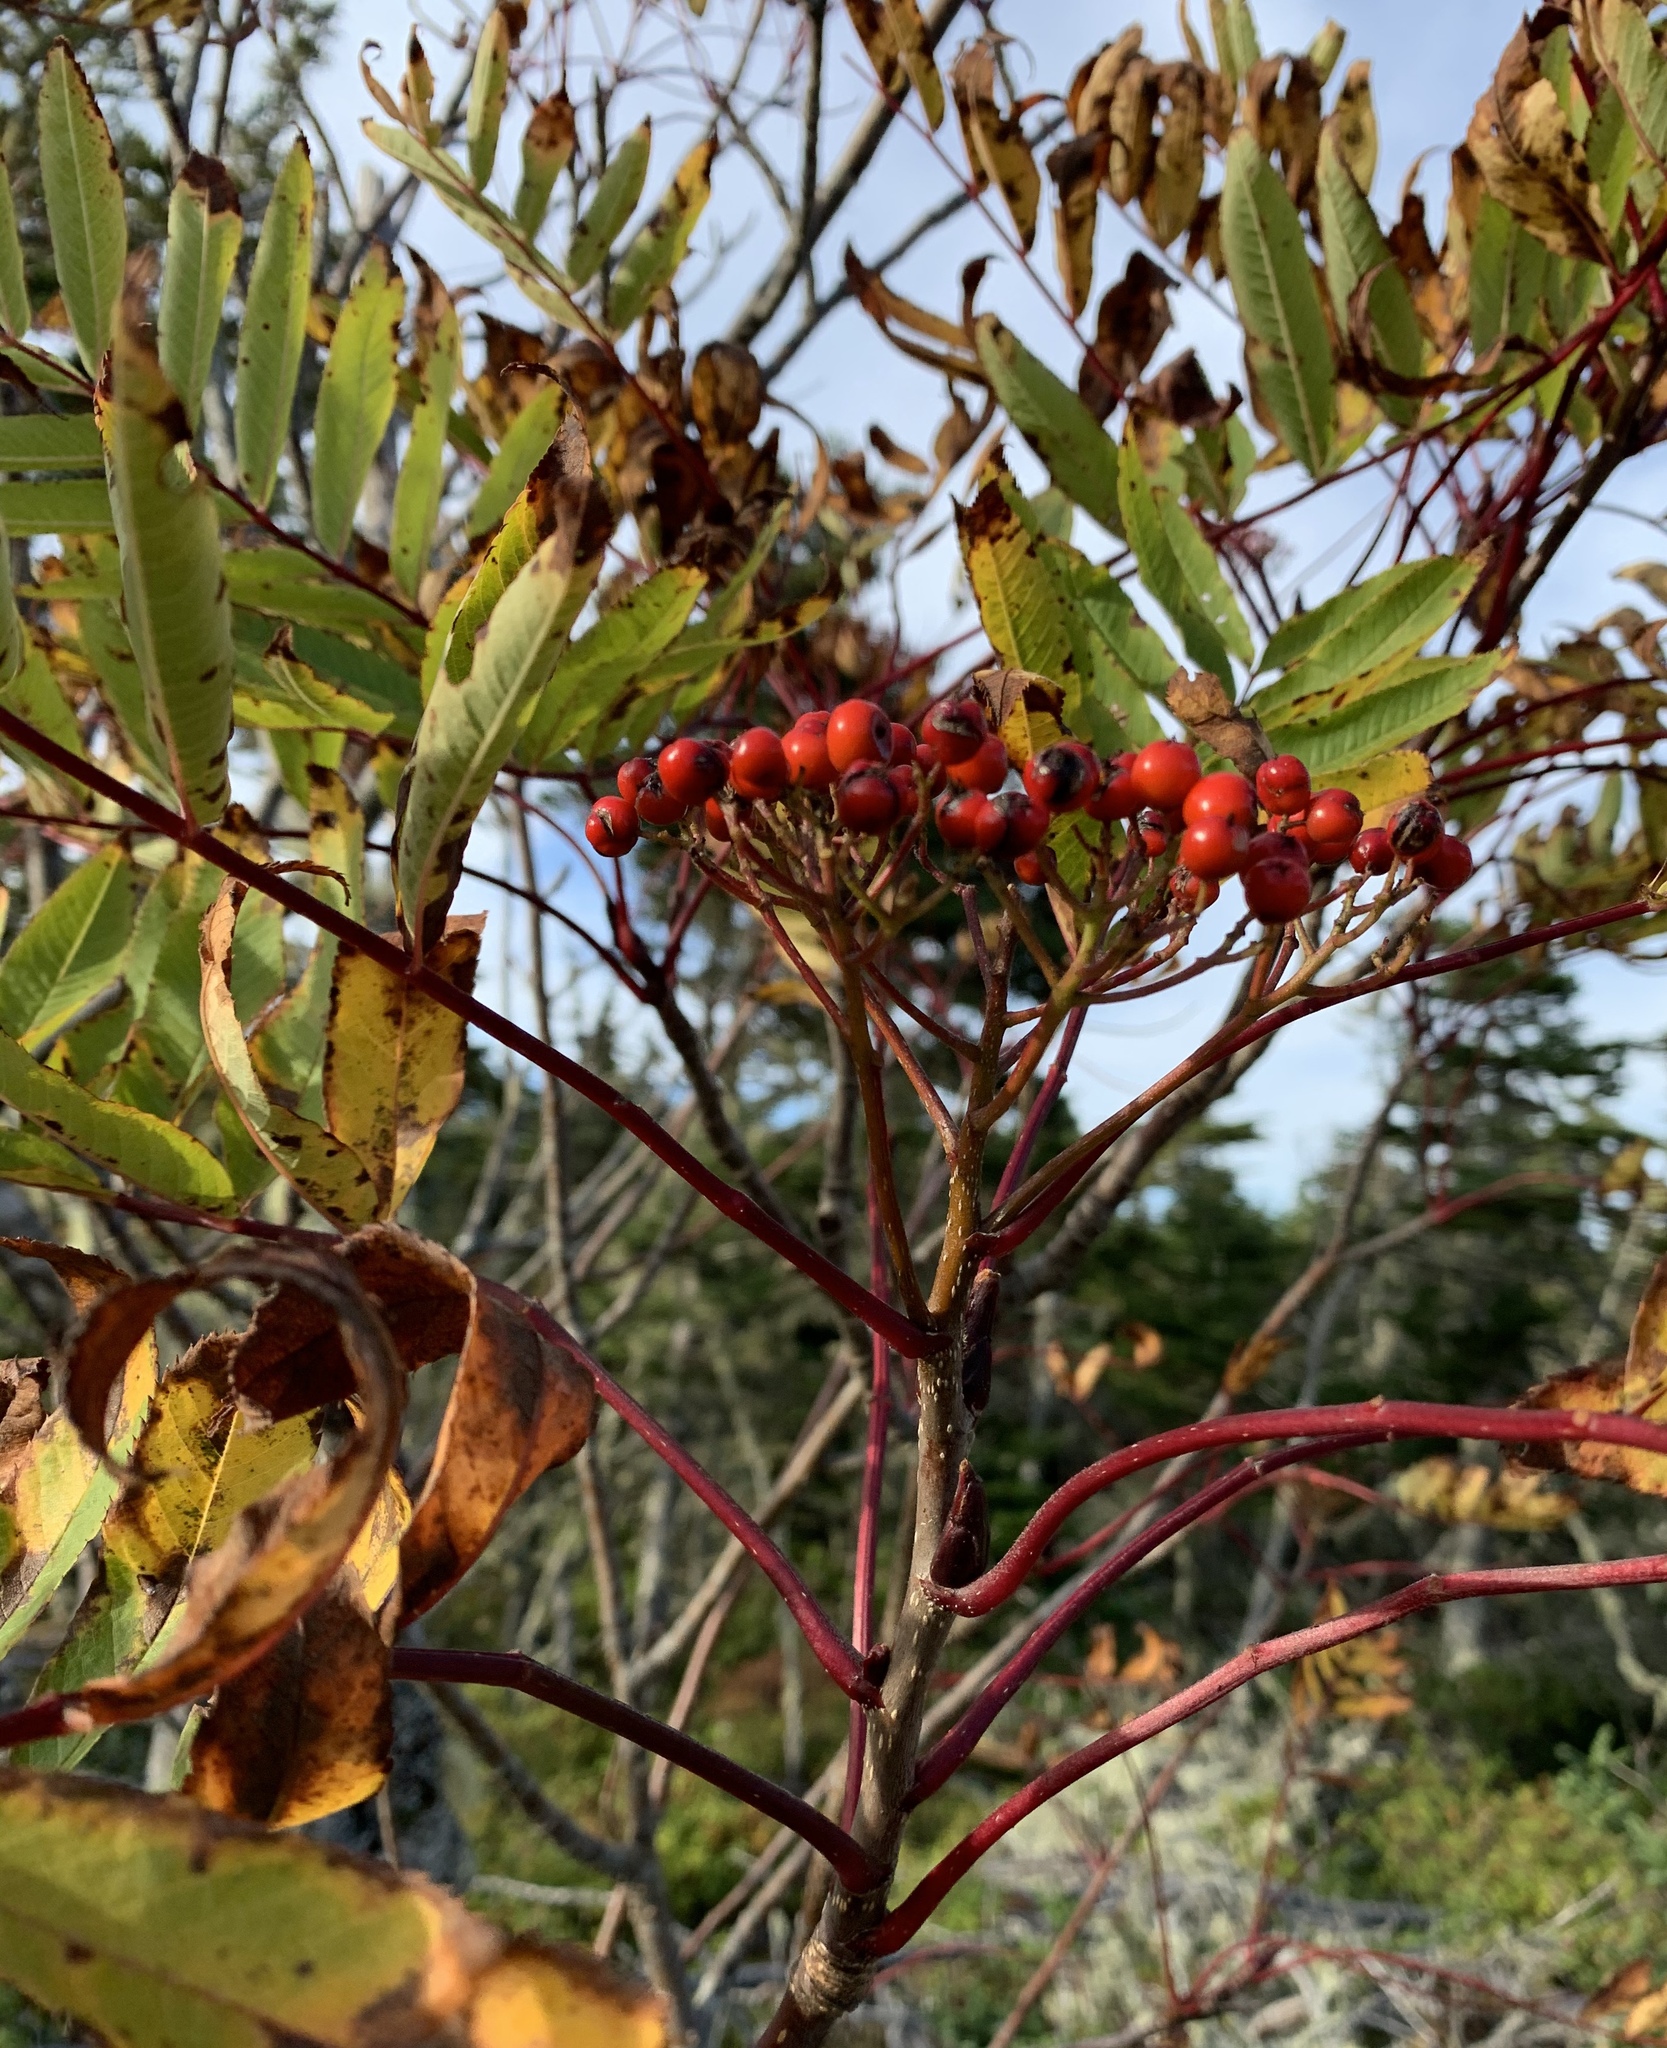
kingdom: Plantae
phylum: Tracheophyta
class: Magnoliopsida
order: Rosales
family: Rosaceae
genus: Sorbus
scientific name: Sorbus americana
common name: American mountain-ash
